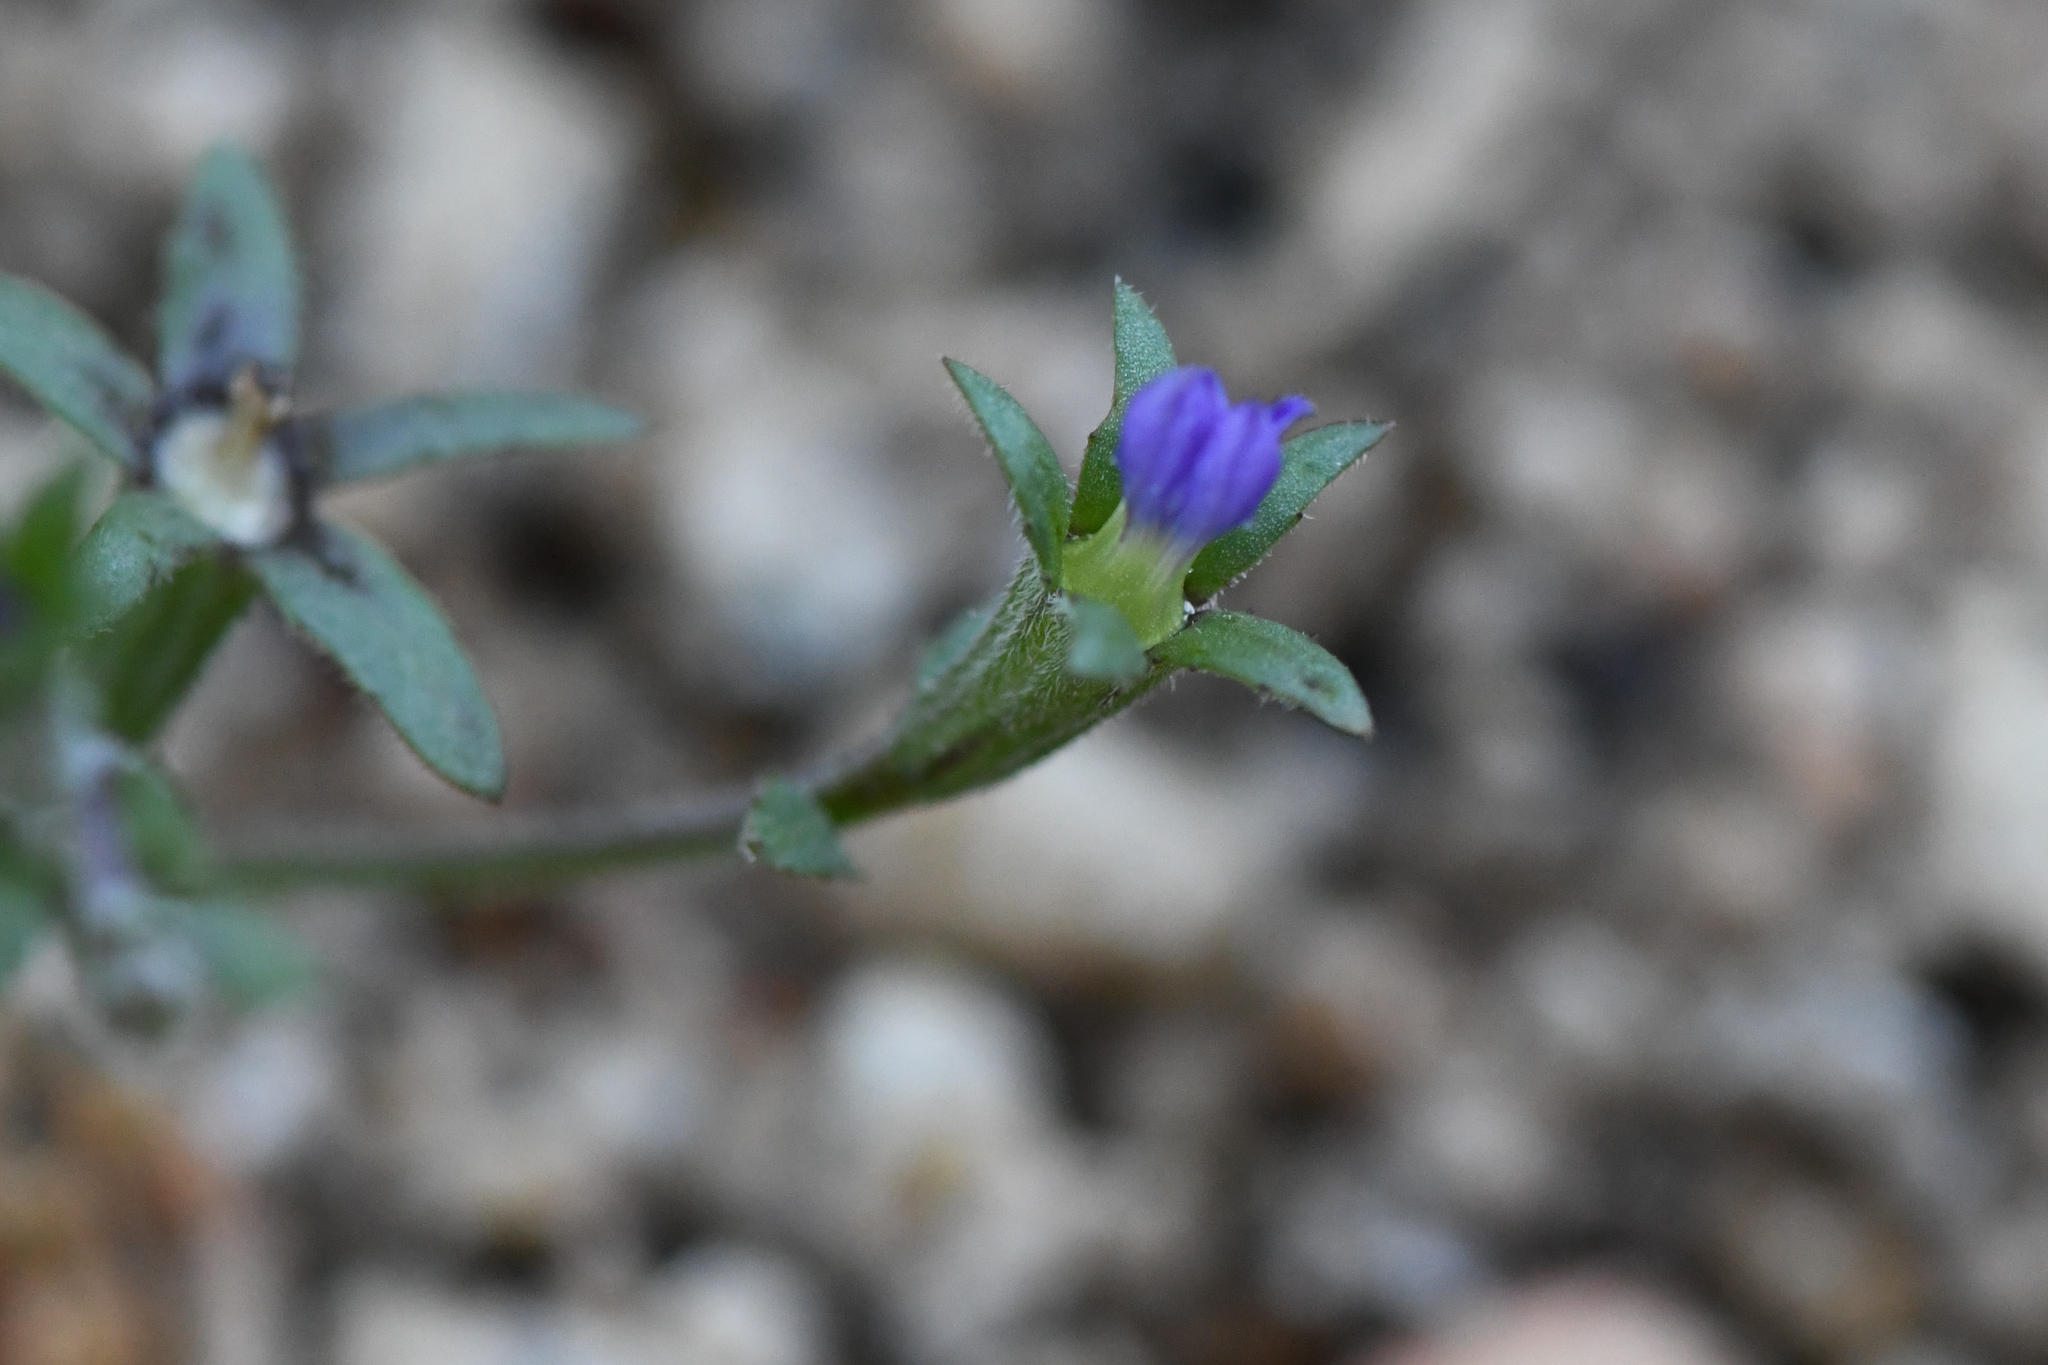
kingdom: Plantae
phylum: Tracheophyta
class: Magnoliopsida
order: Asterales
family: Campanulaceae
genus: Githopsis
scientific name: Githopsis tenella
